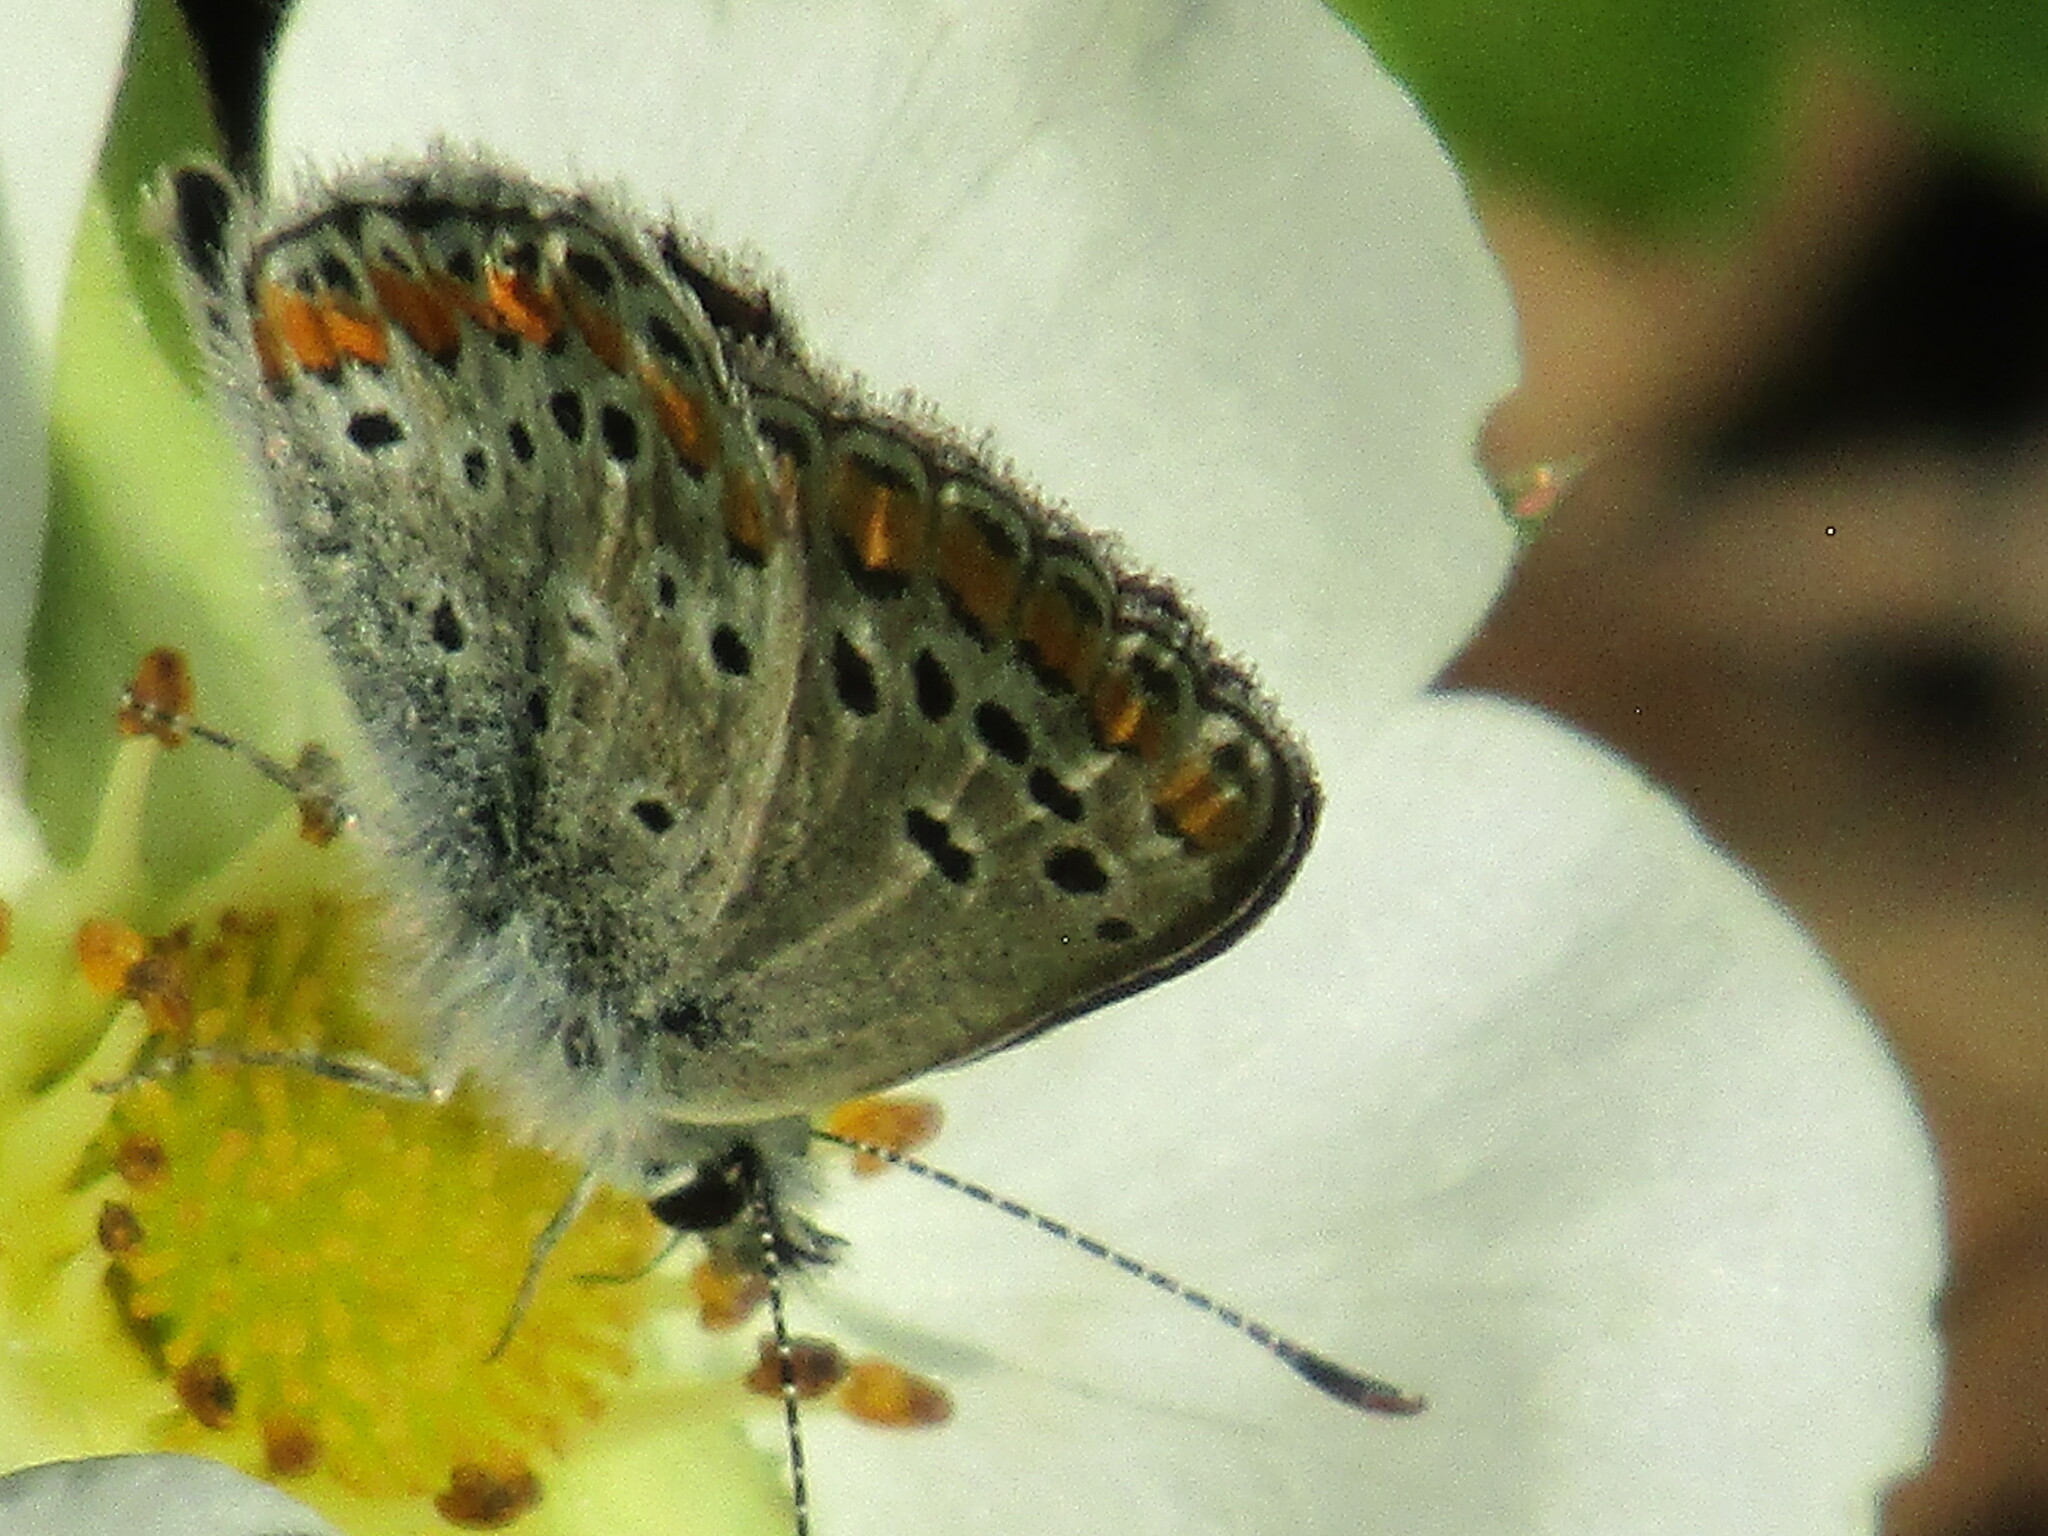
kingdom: Animalia
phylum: Arthropoda
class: Insecta
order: Lepidoptera
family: Lycaenidae
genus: Aricia
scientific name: Aricia agestis
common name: Brown argus
